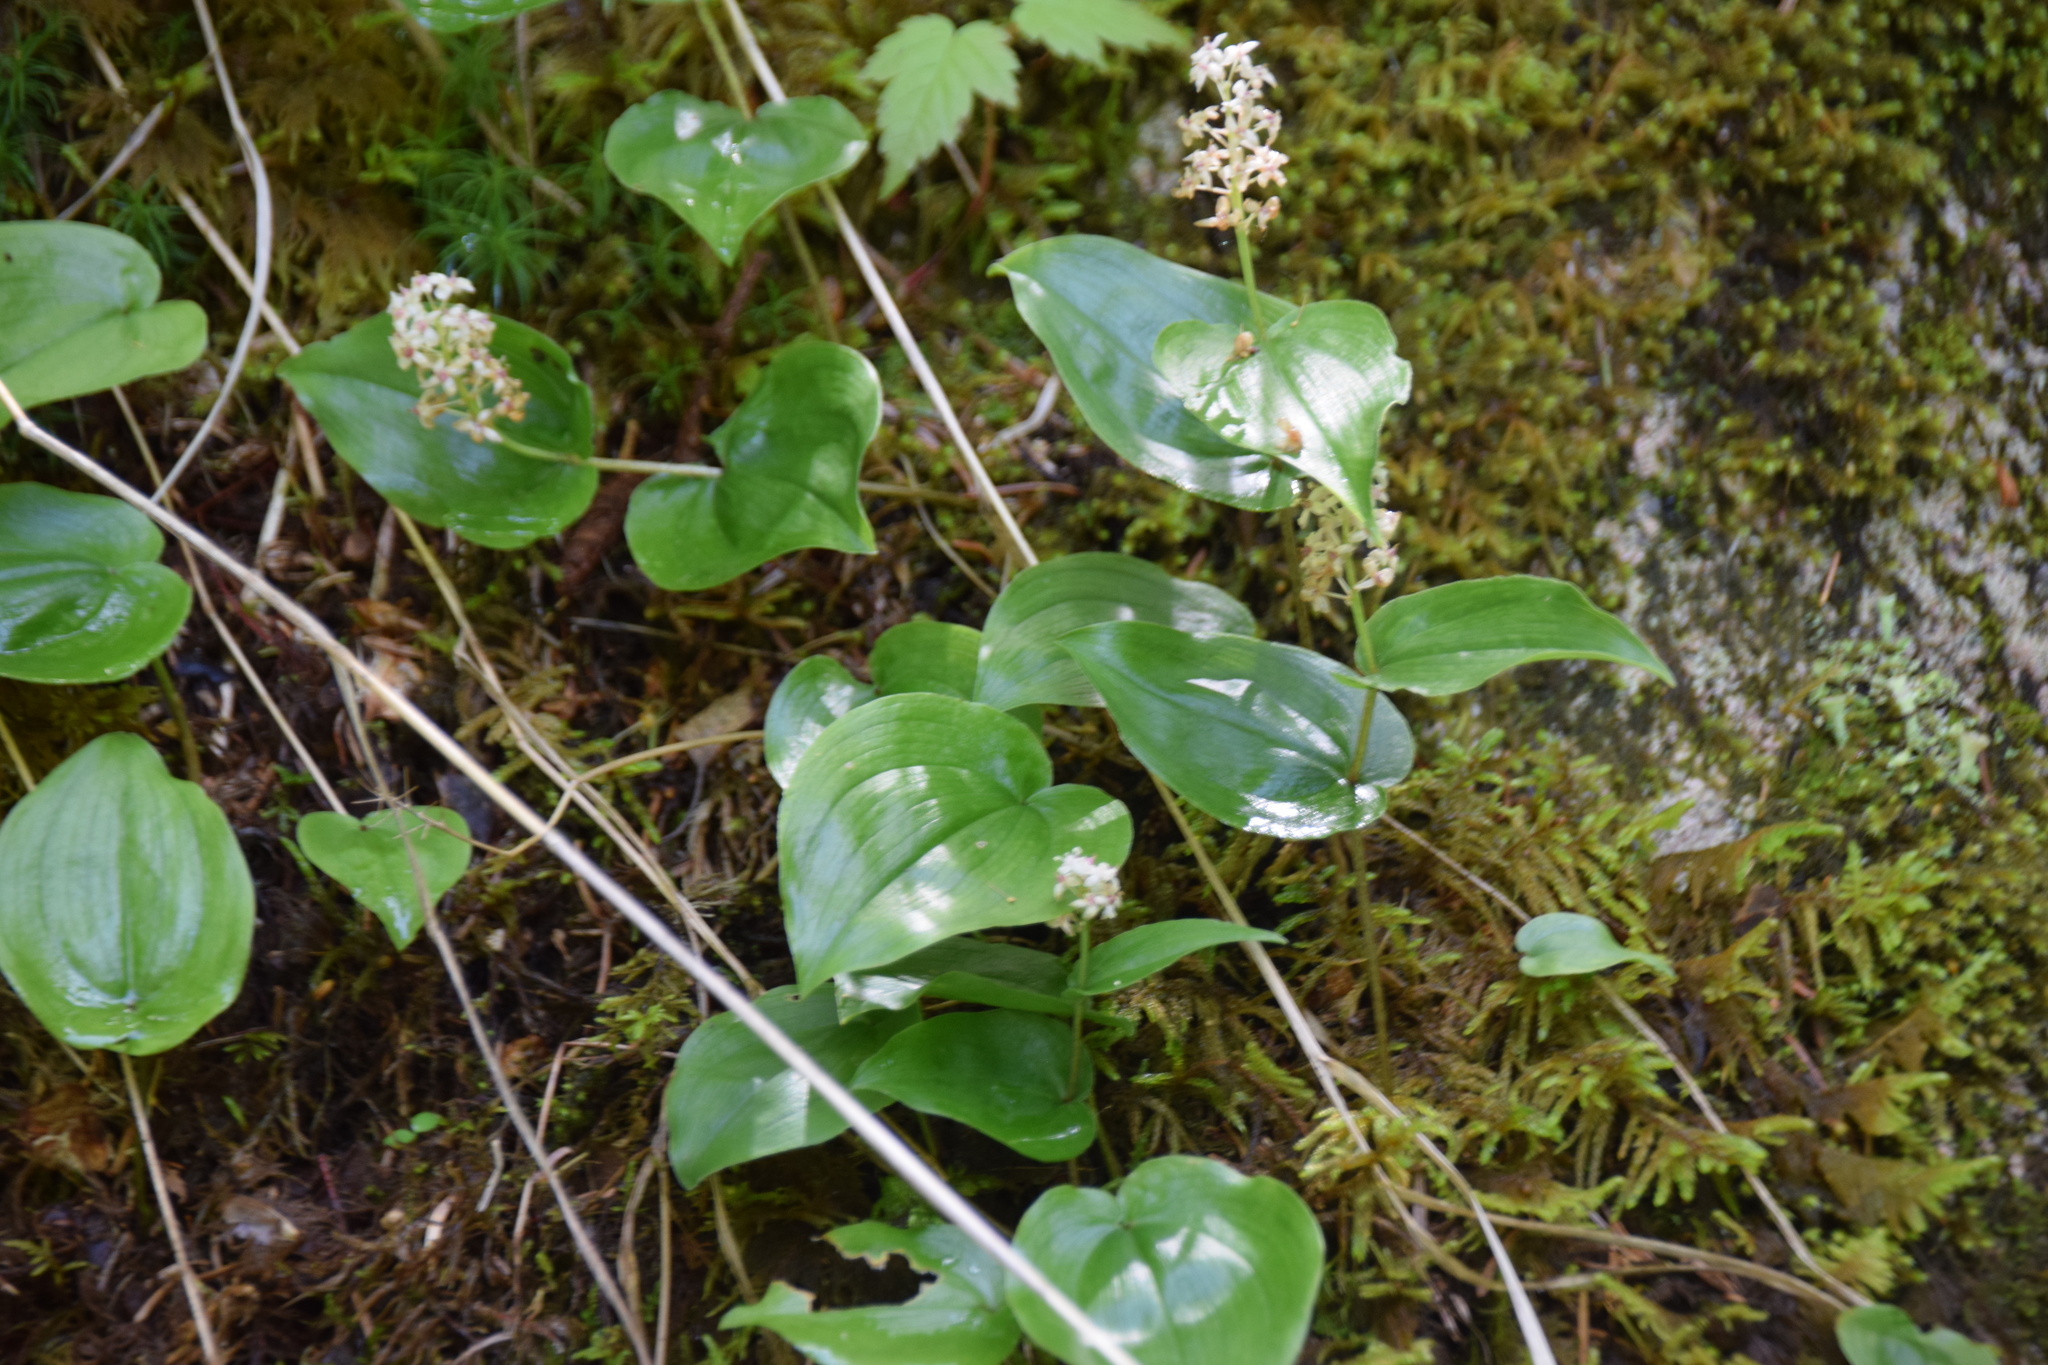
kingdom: Plantae
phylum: Tracheophyta
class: Liliopsida
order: Asparagales
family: Asparagaceae
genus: Maianthemum
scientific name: Maianthemum canadense
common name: False lily-of-the-valley
